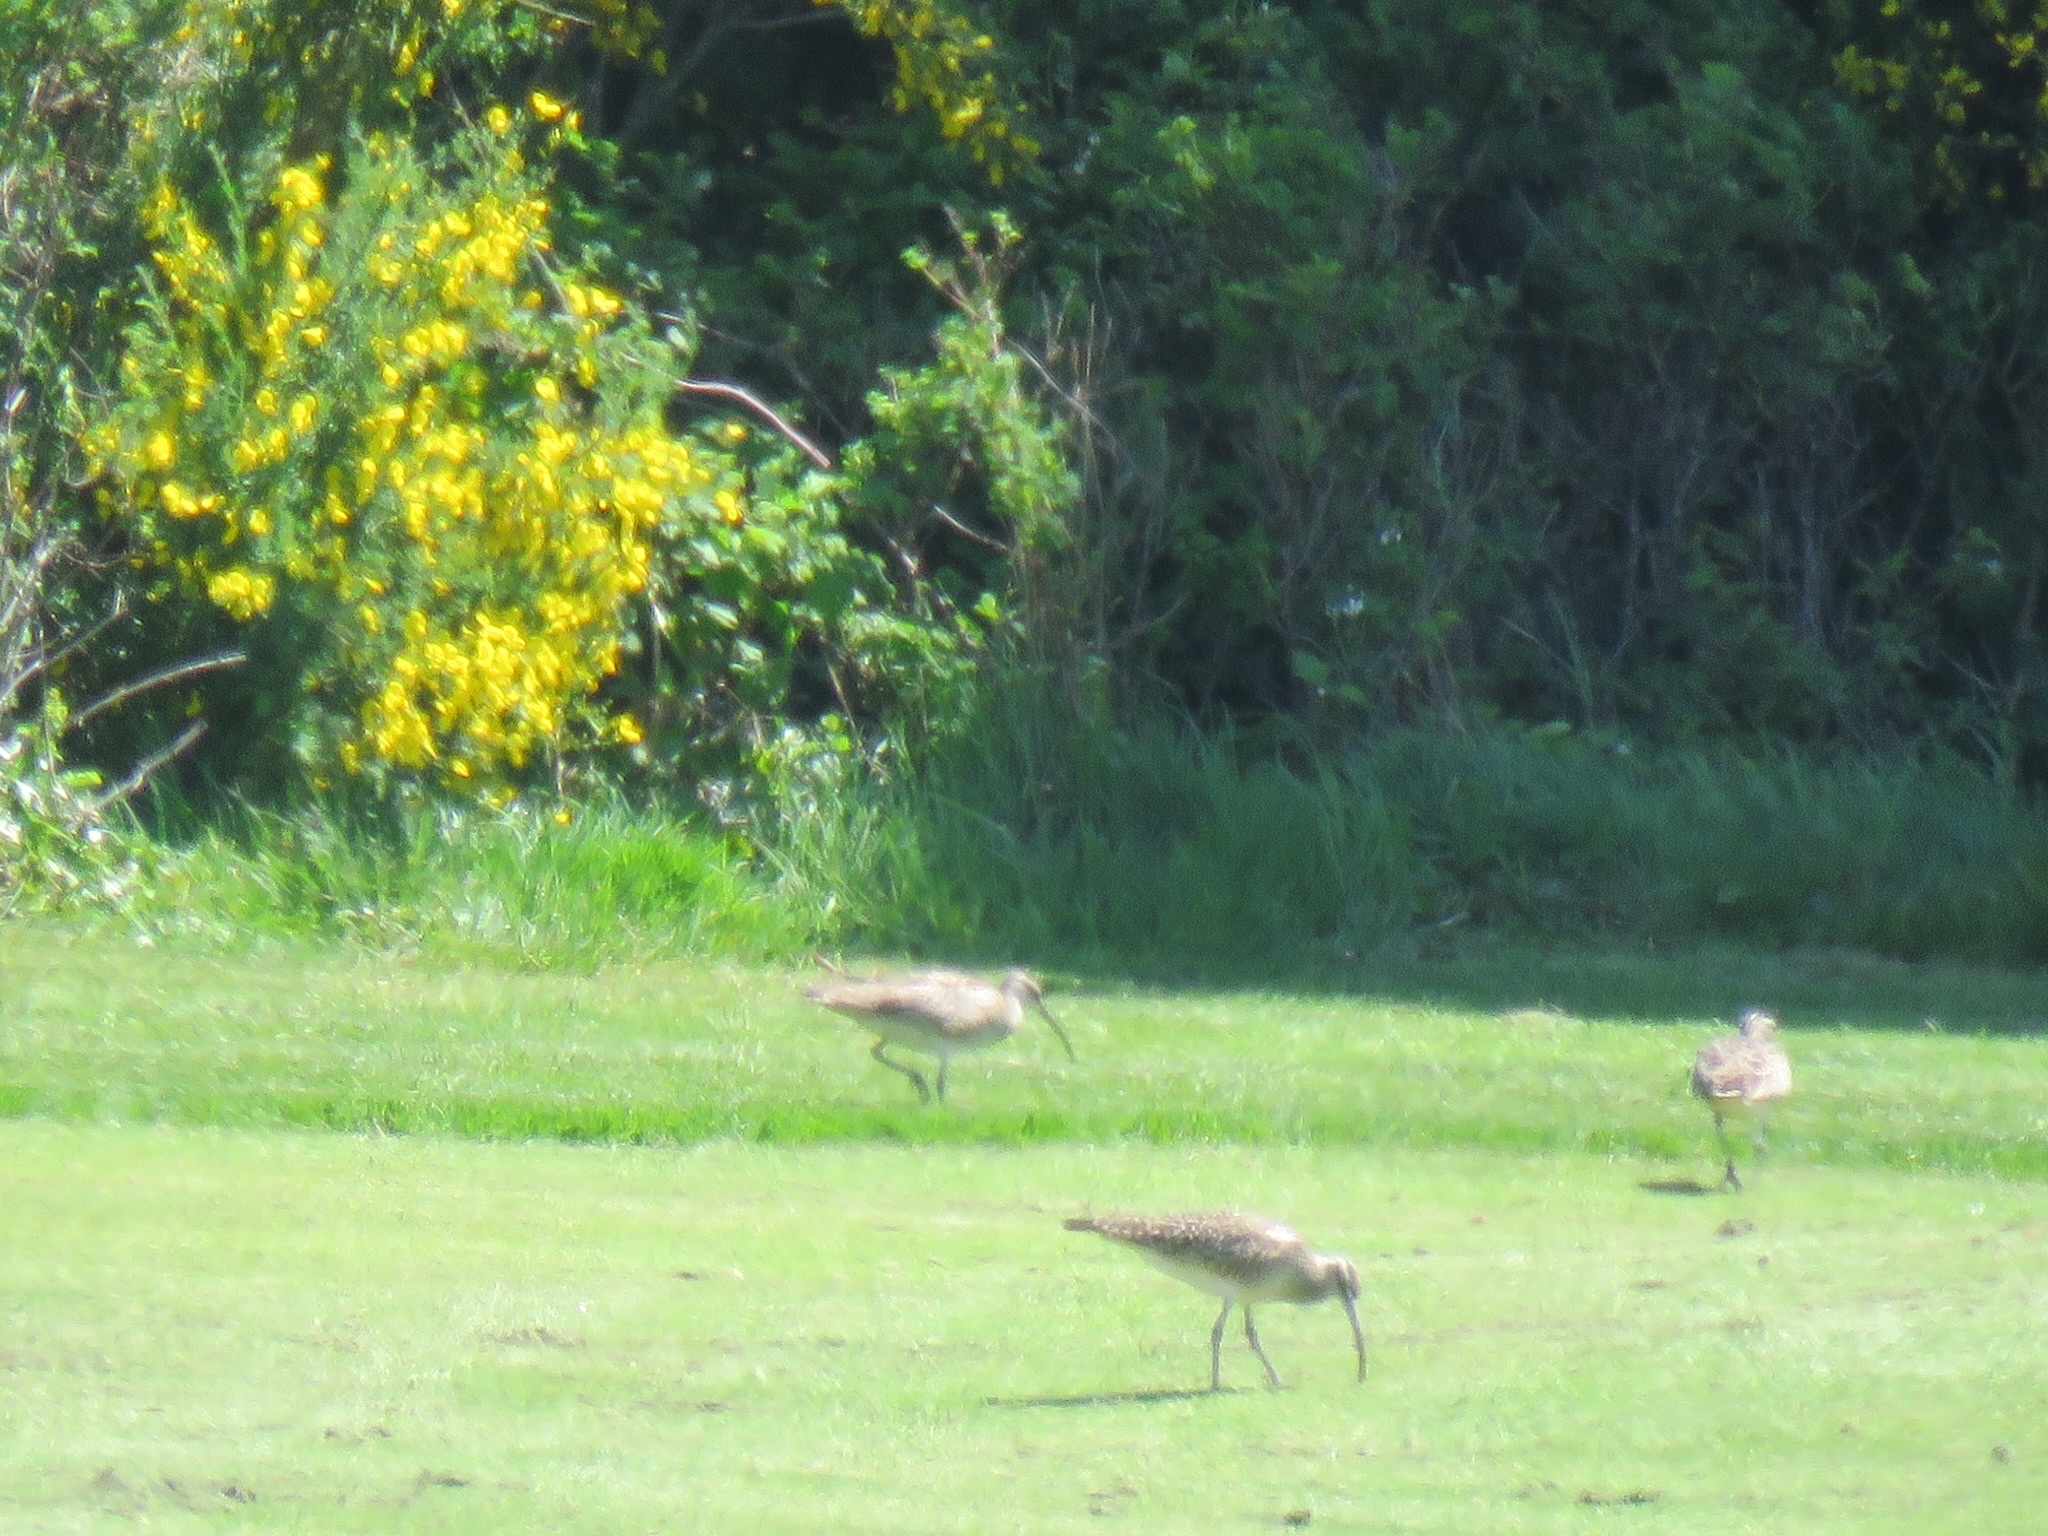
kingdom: Animalia
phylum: Chordata
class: Aves
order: Charadriiformes
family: Scolopacidae
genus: Numenius
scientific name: Numenius phaeopus
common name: Whimbrel
